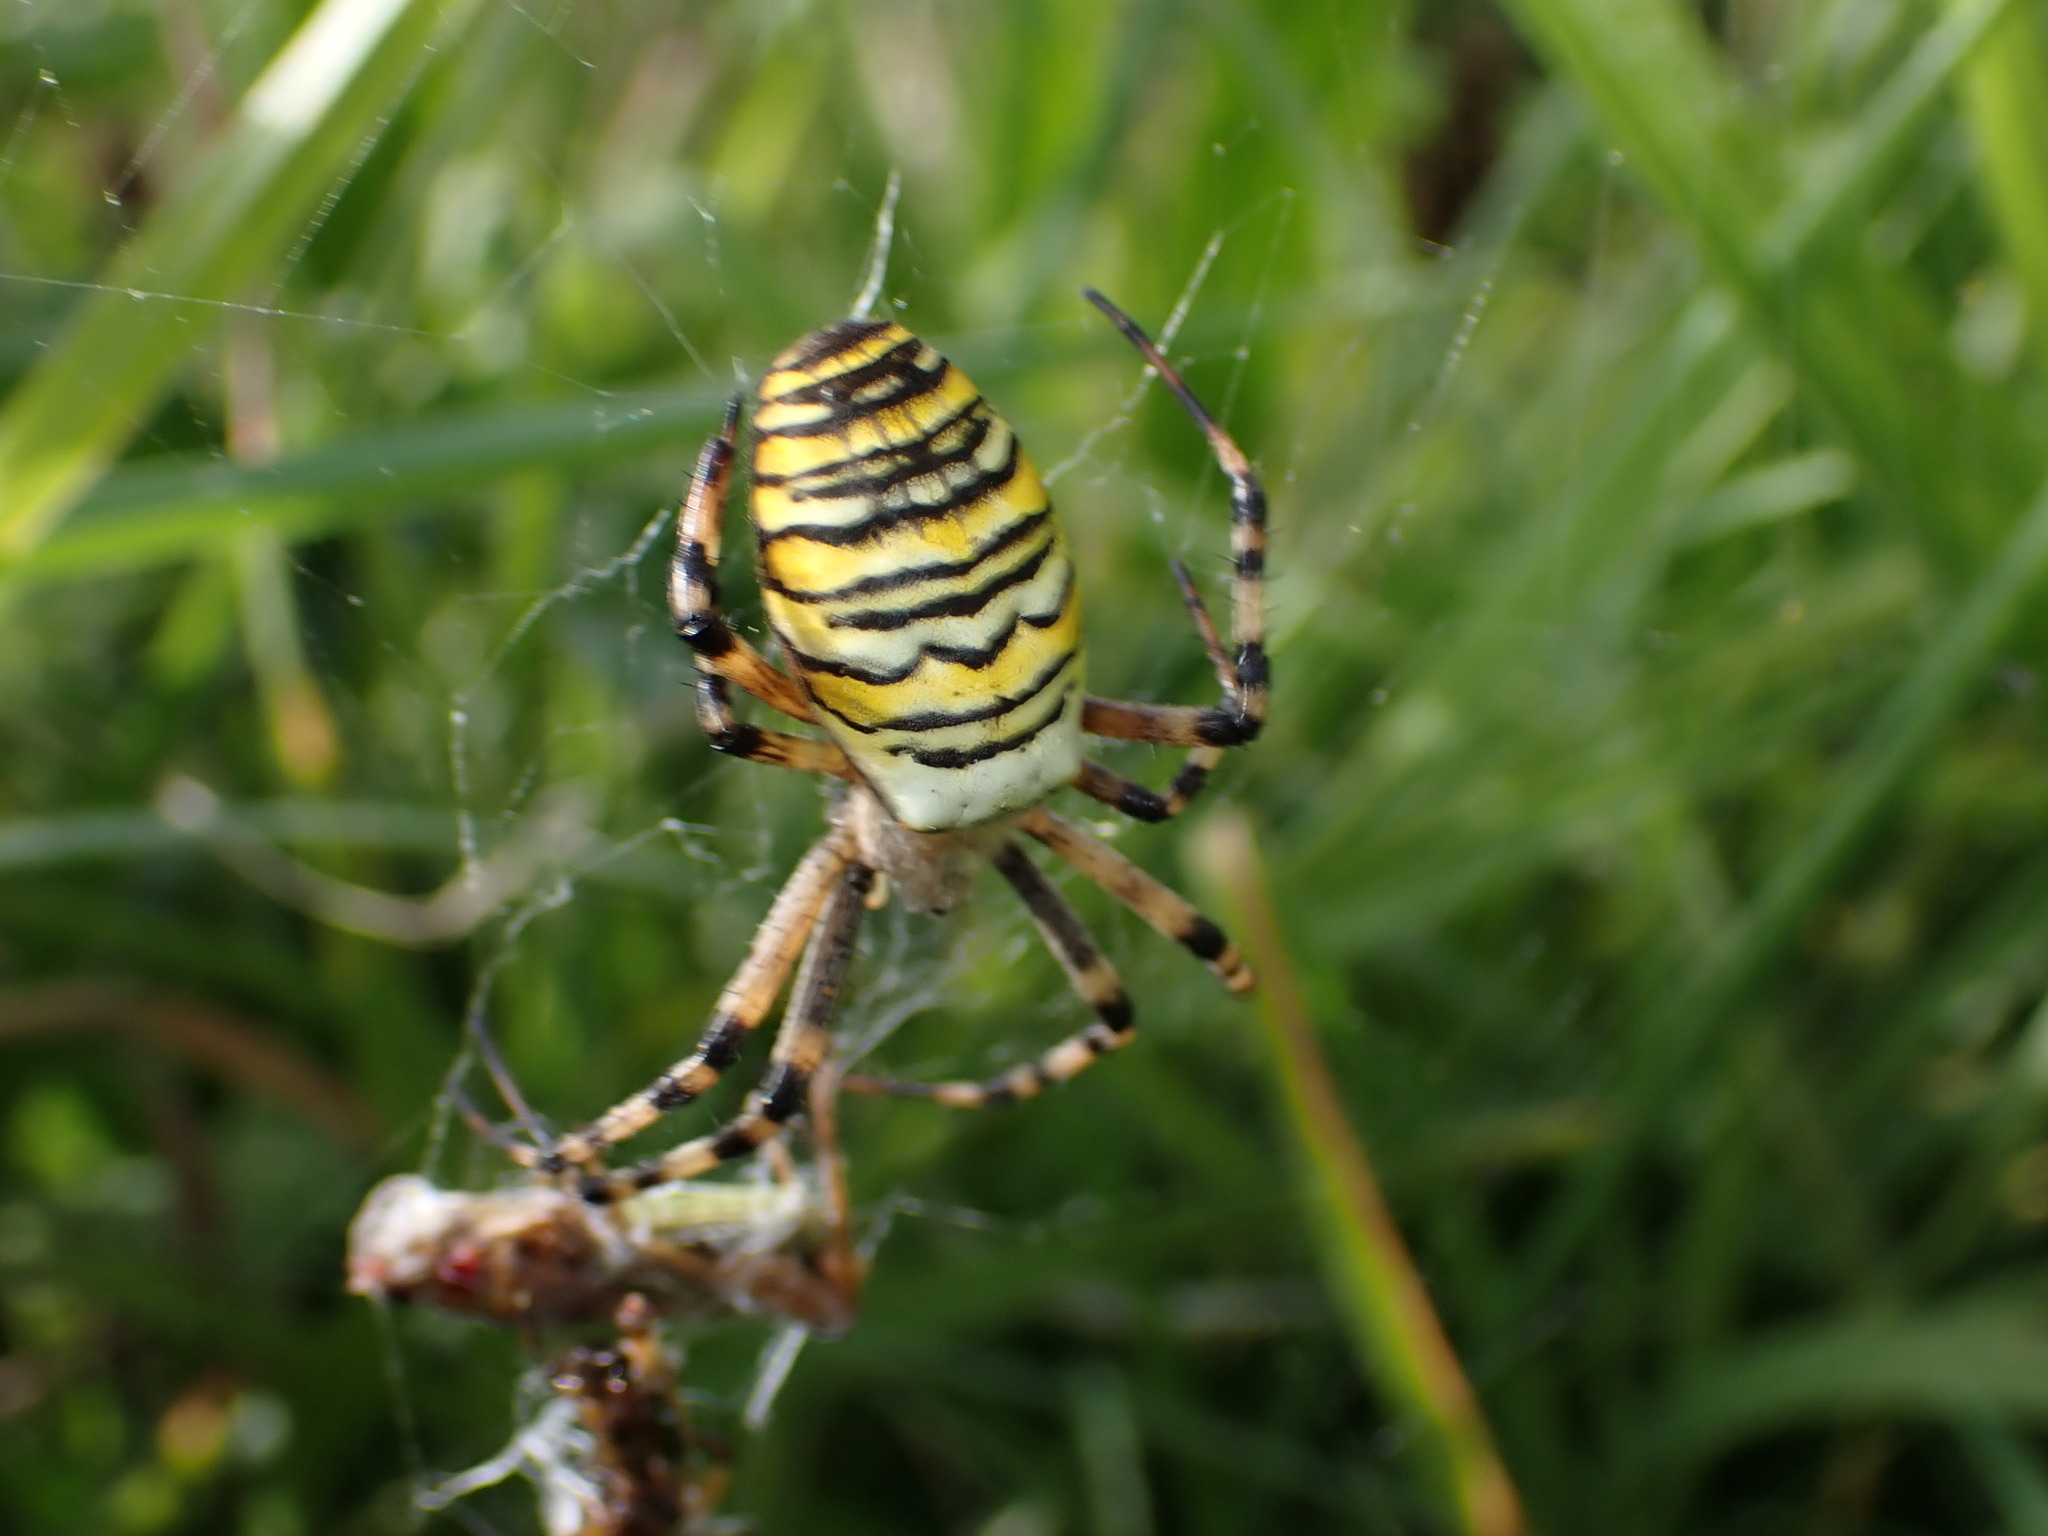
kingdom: Animalia
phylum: Arthropoda
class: Arachnida
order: Araneae
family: Araneidae
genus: Argiope
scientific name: Argiope bruennichi
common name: Wasp spider
